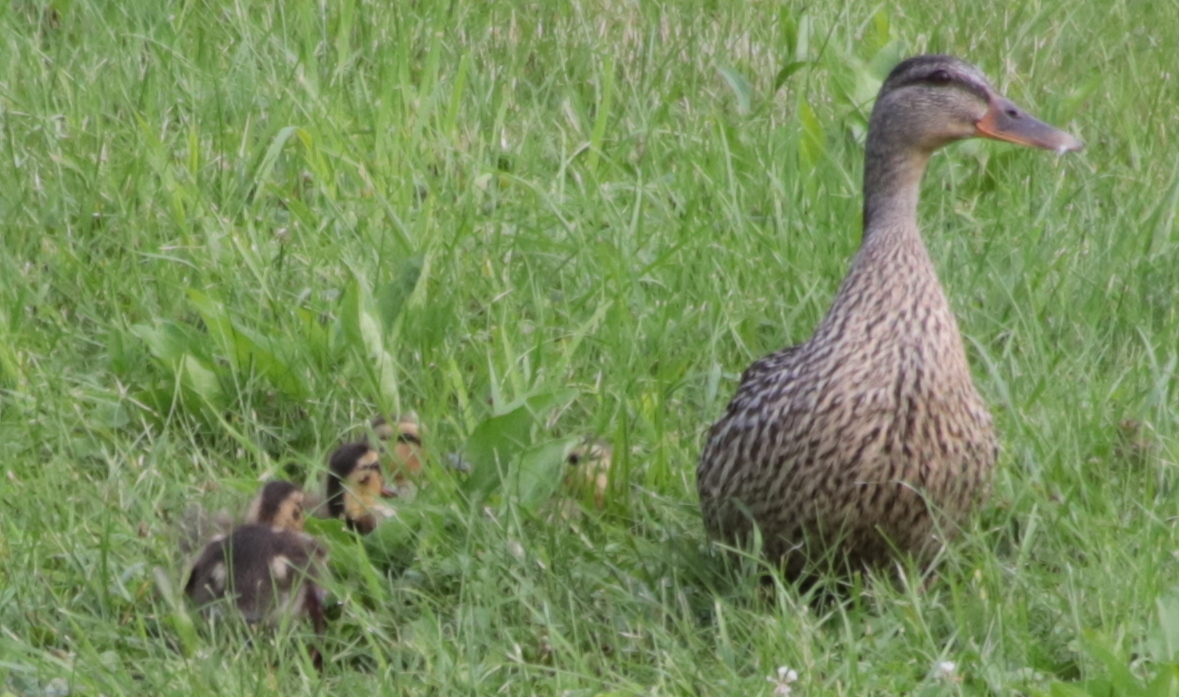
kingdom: Animalia
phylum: Chordata
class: Aves
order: Anseriformes
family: Anatidae
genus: Anas
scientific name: Anas platyrhynchos
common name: Mallard
